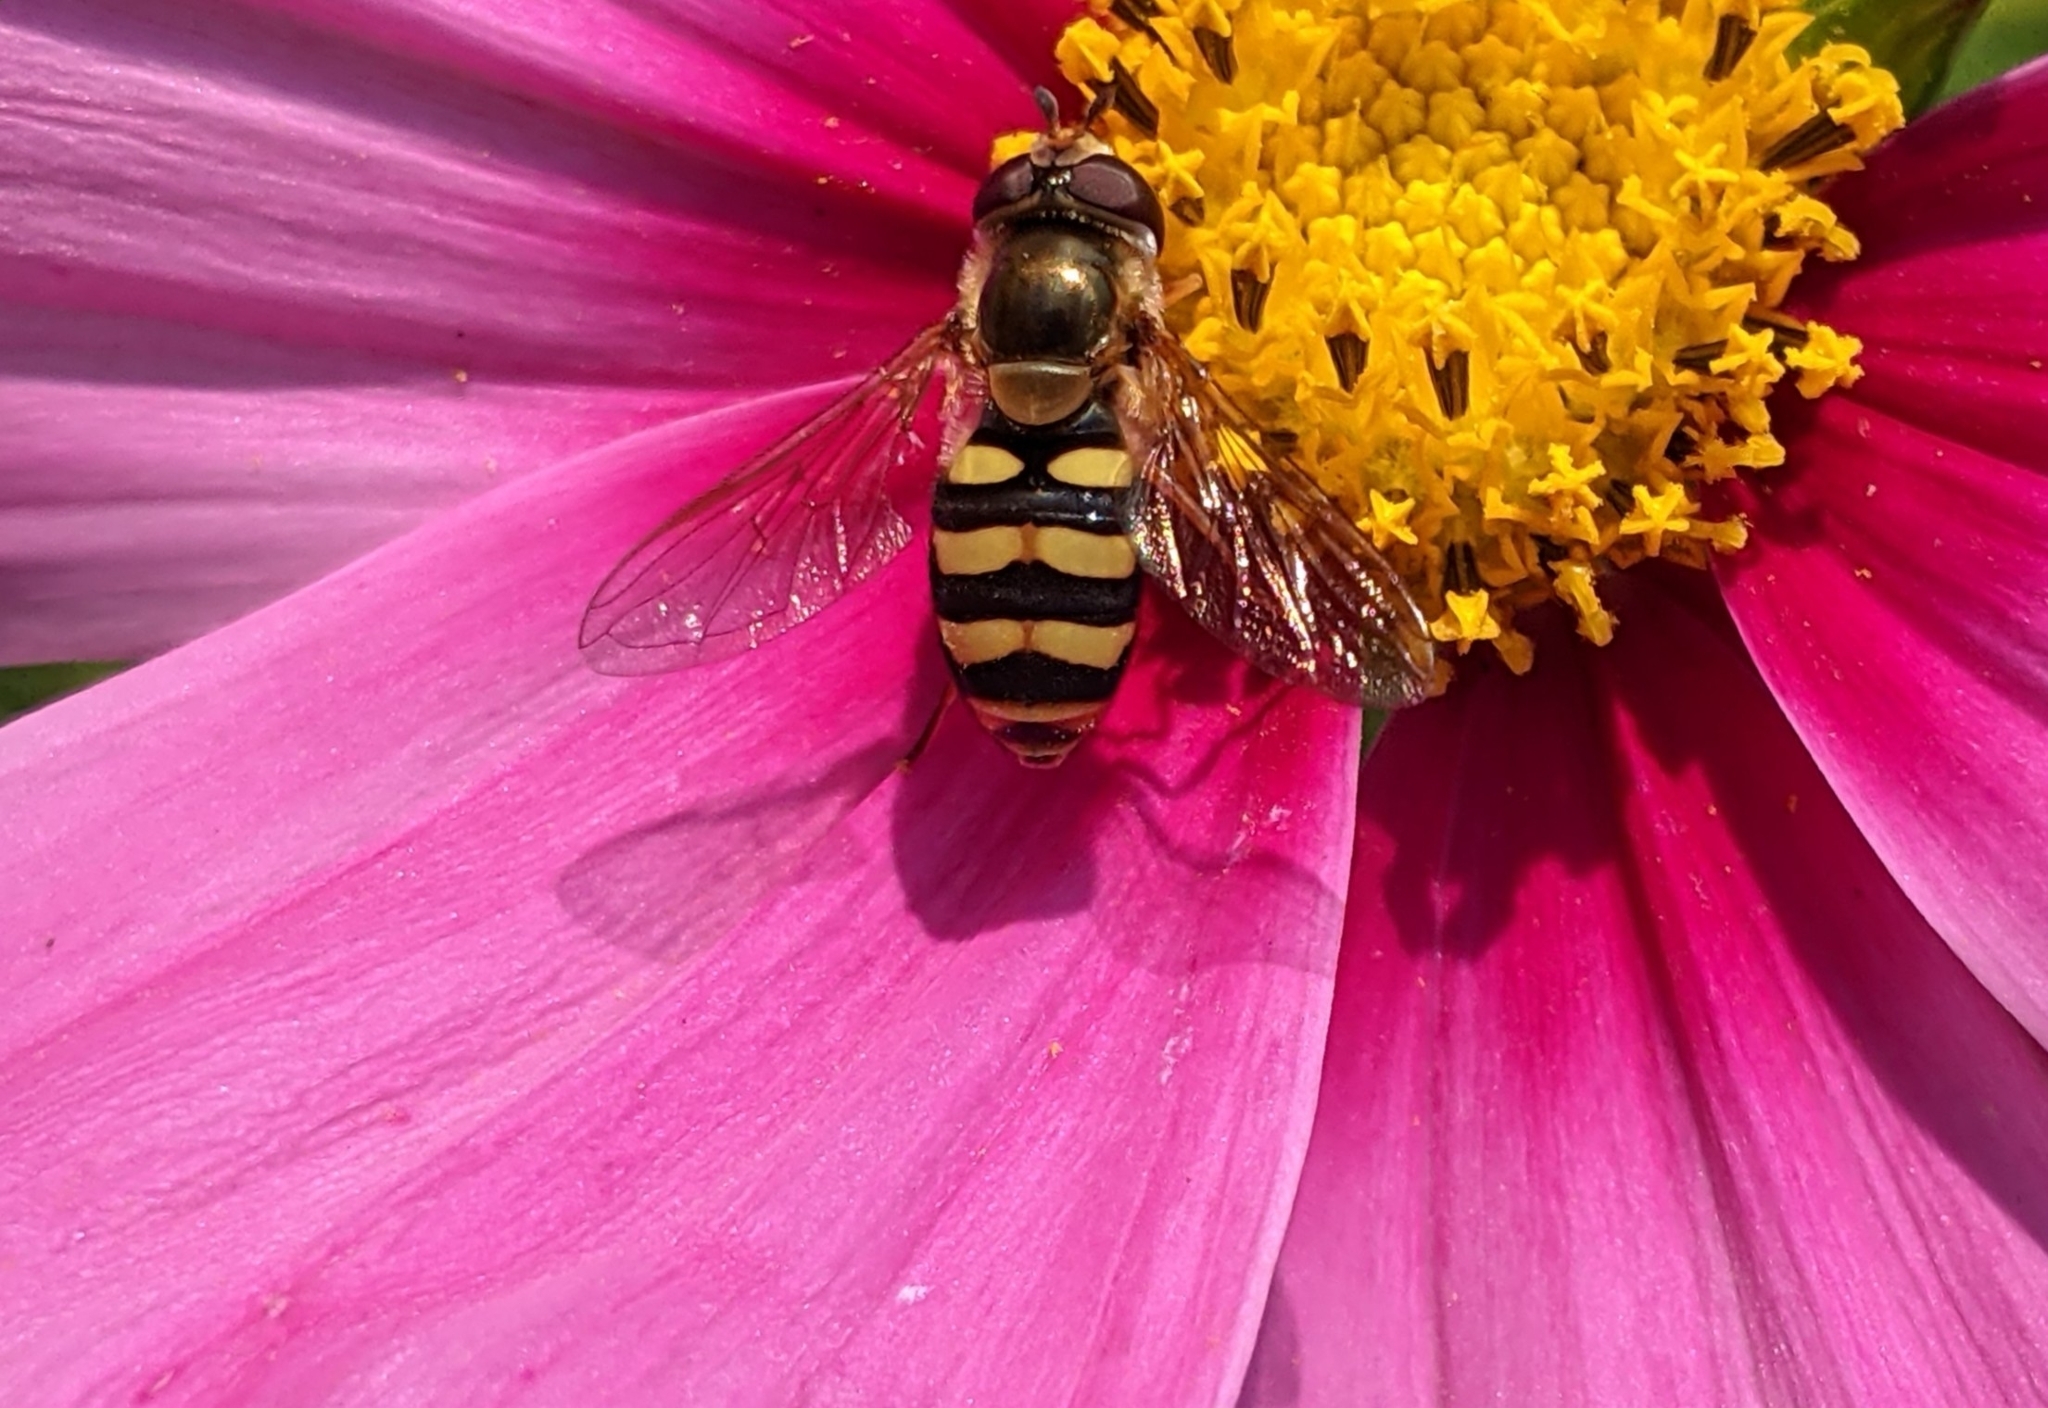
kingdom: Animalia
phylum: Arthropoda
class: Insecta
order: Diptera
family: Syrphidae
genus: Eupeodes
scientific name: Eupeodes fumipennis
